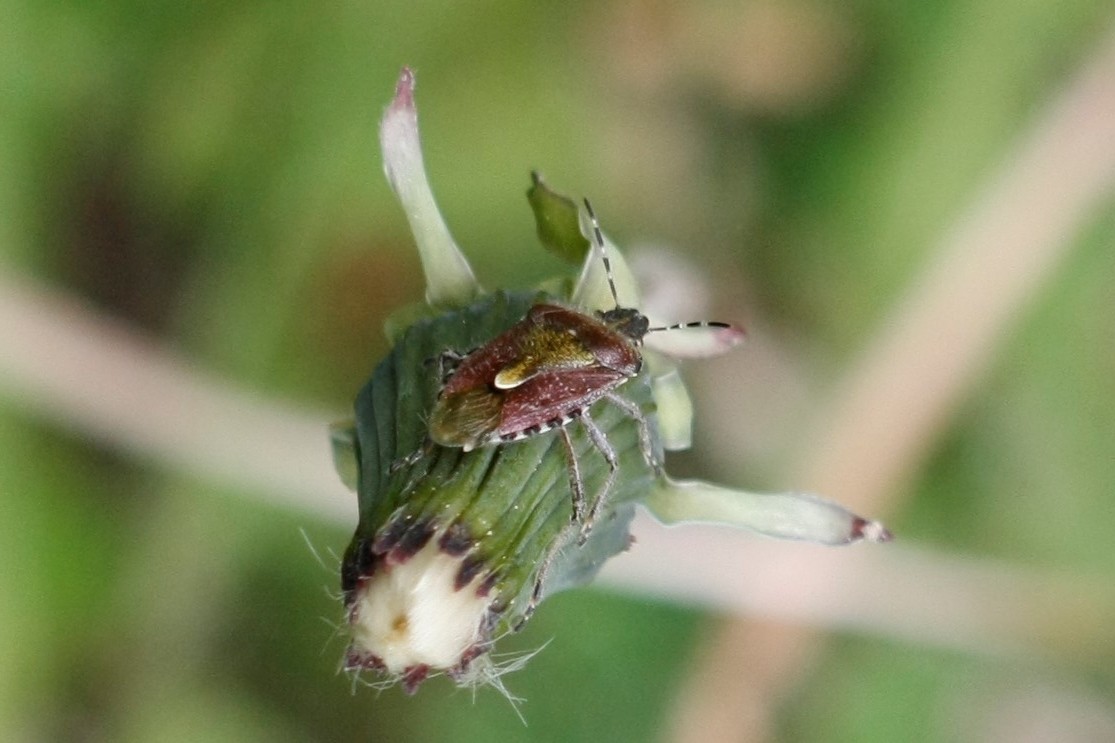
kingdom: Animalia
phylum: Arthropoda
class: Insecta
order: Hemiptera
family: Pentatomidae
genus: Dolycoris
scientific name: Dolycoris baccarum
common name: Sloe bug
